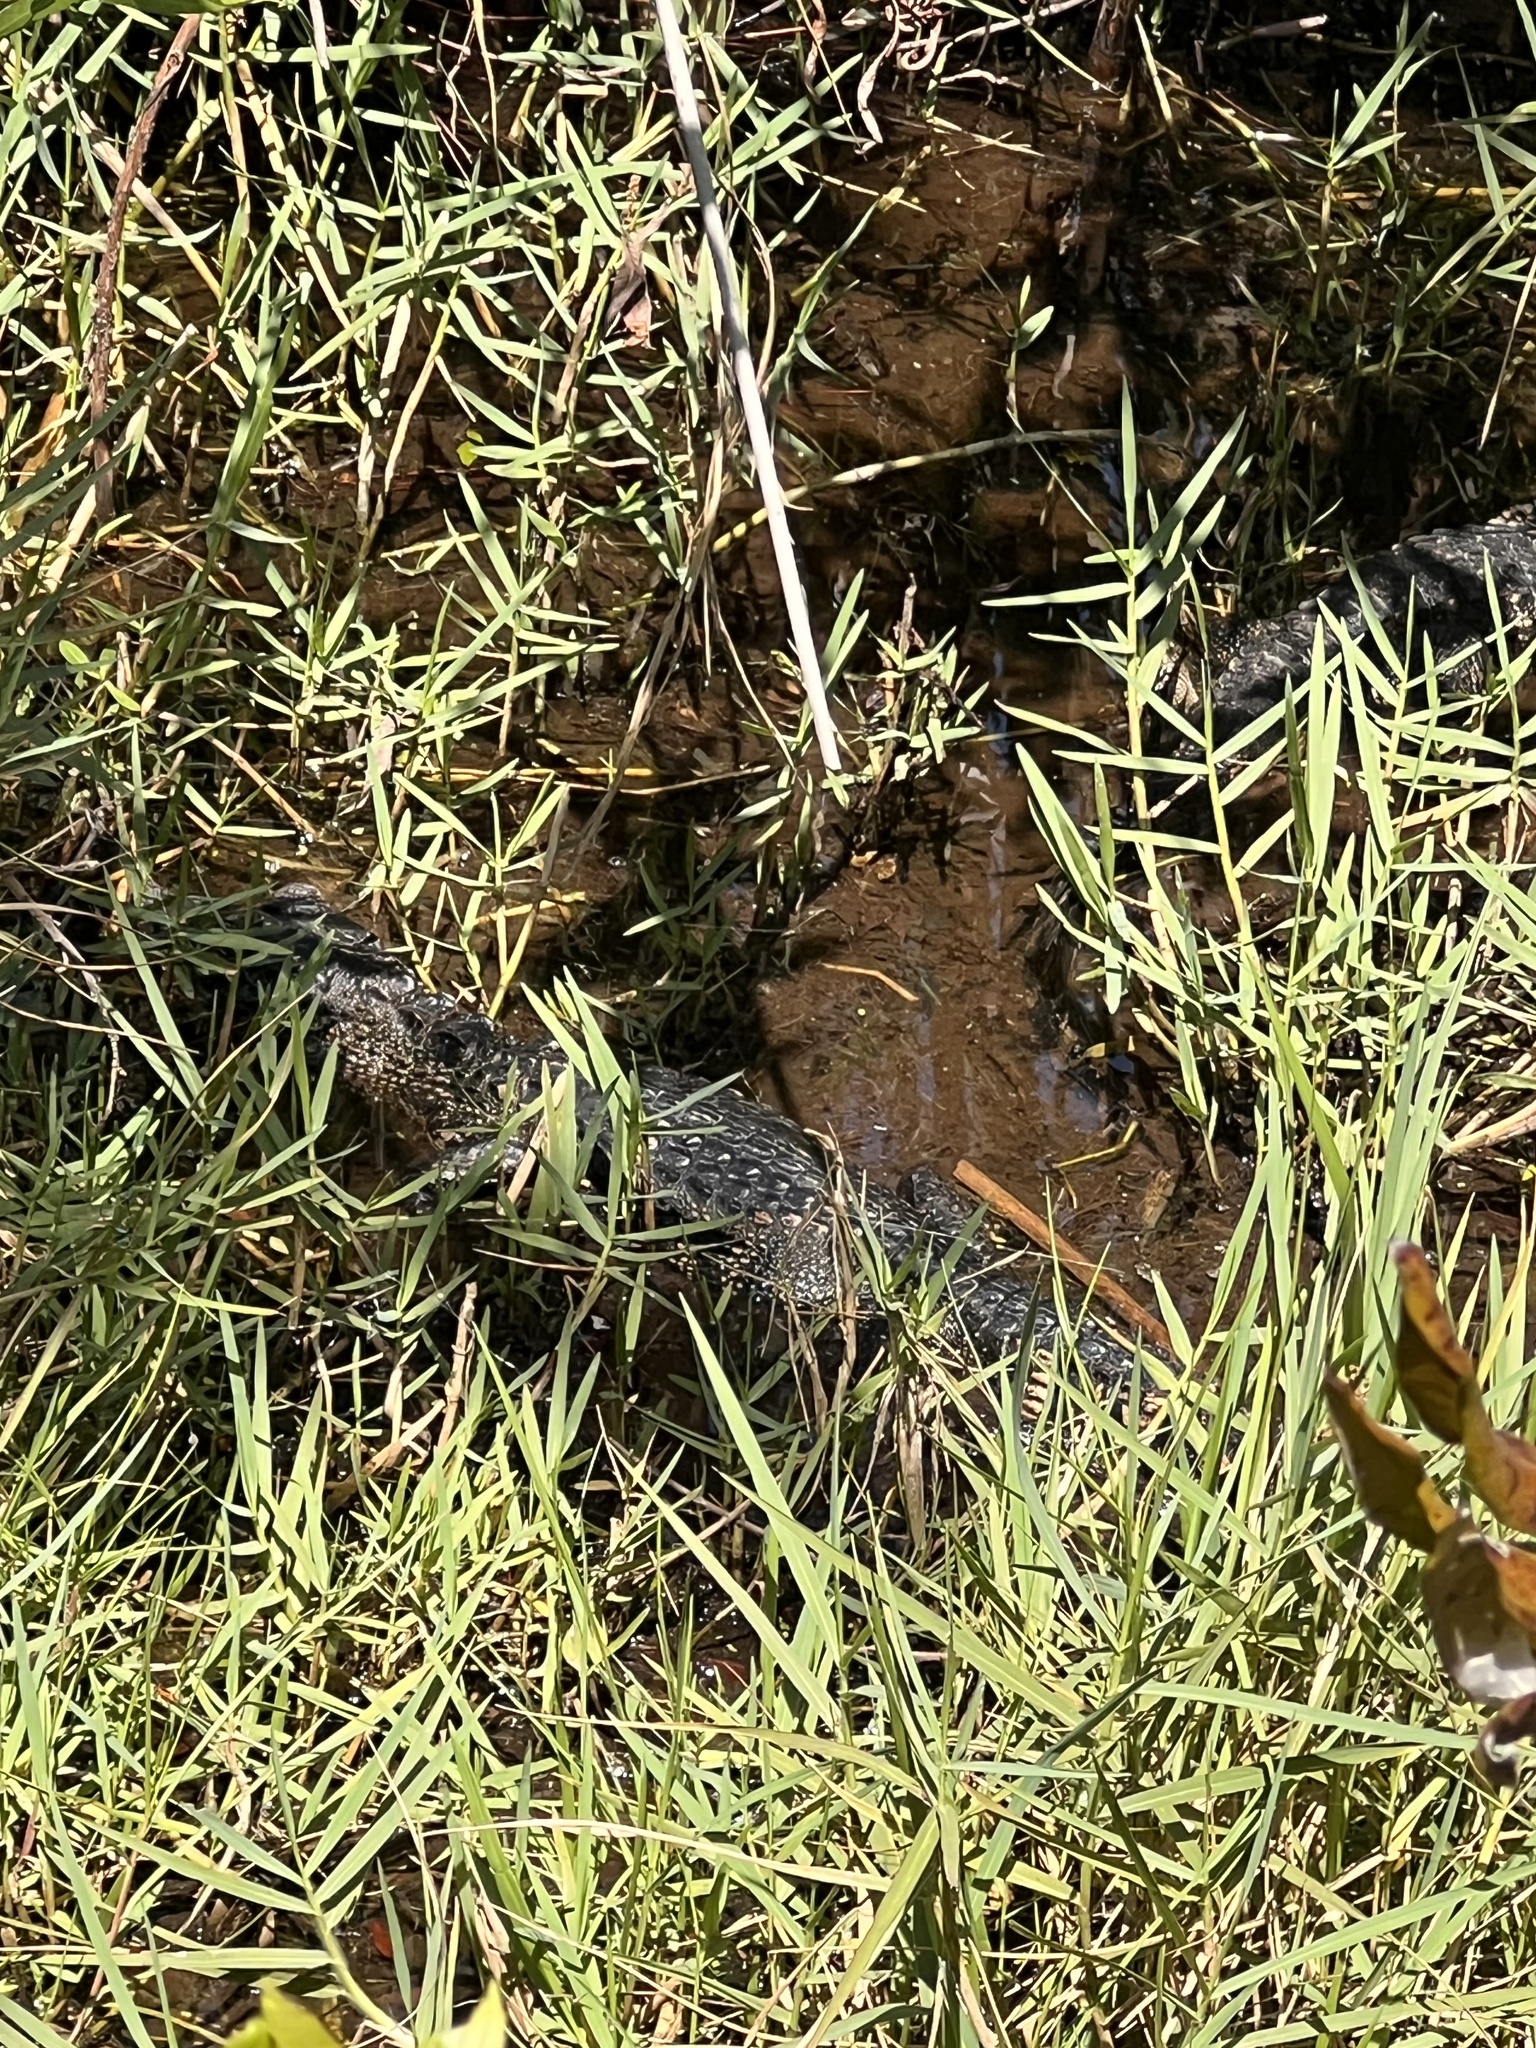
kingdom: Animalia
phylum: Chordata
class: Crocodylia
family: Alligatoridae
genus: Alligator
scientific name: Alligator mississippiensis
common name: American alligator
